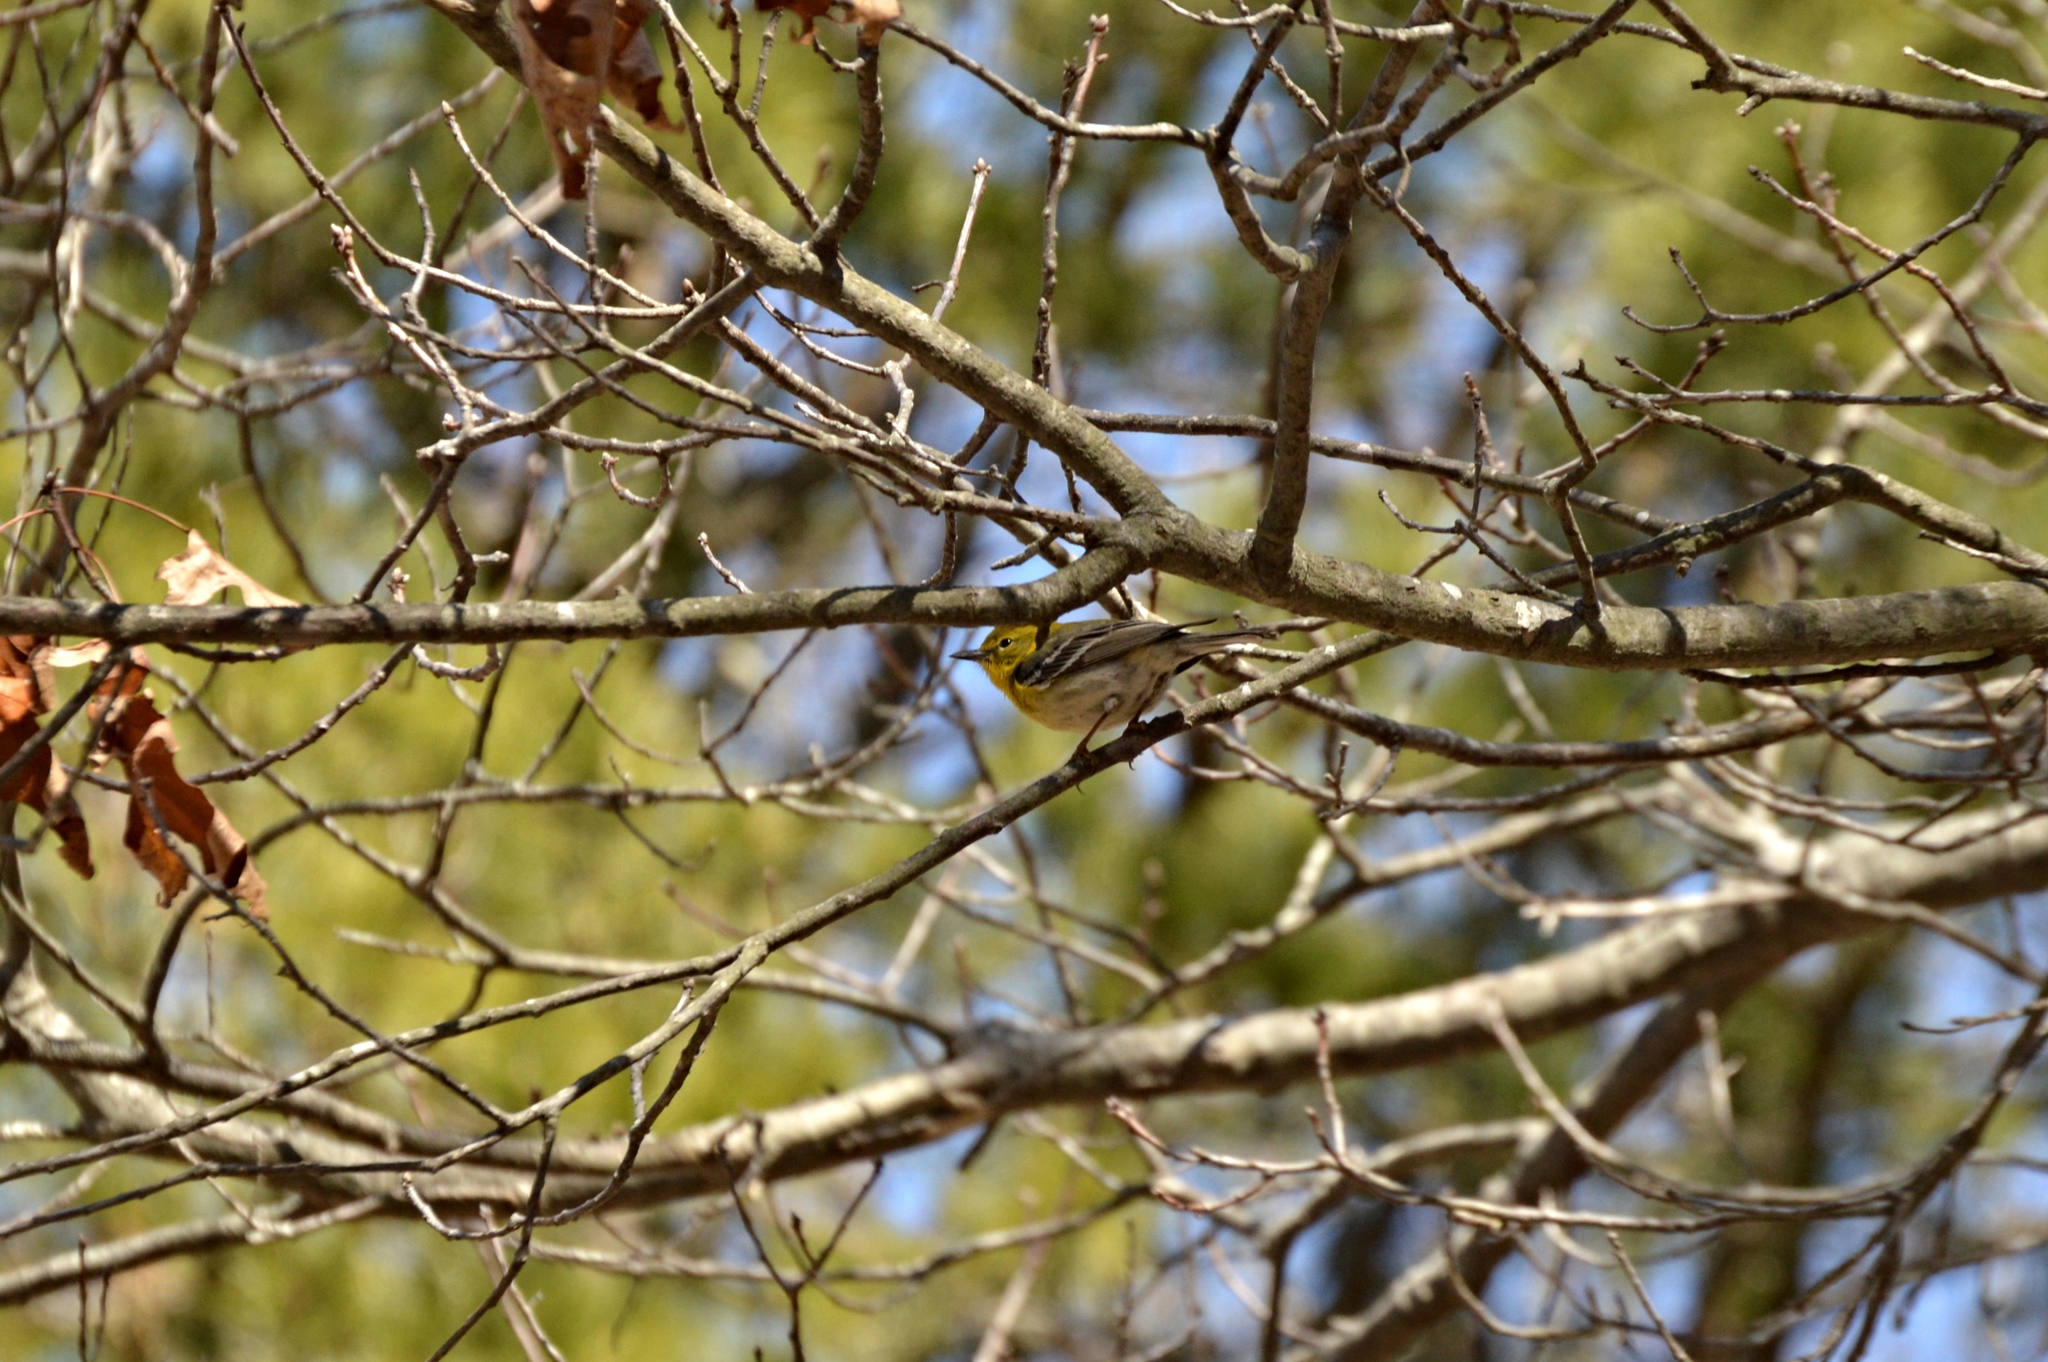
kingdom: Animalia
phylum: Chordata
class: Aves
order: Passeriformes
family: Parulidae
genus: Setophaga
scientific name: Setophaga pinus
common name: Pine warbler
